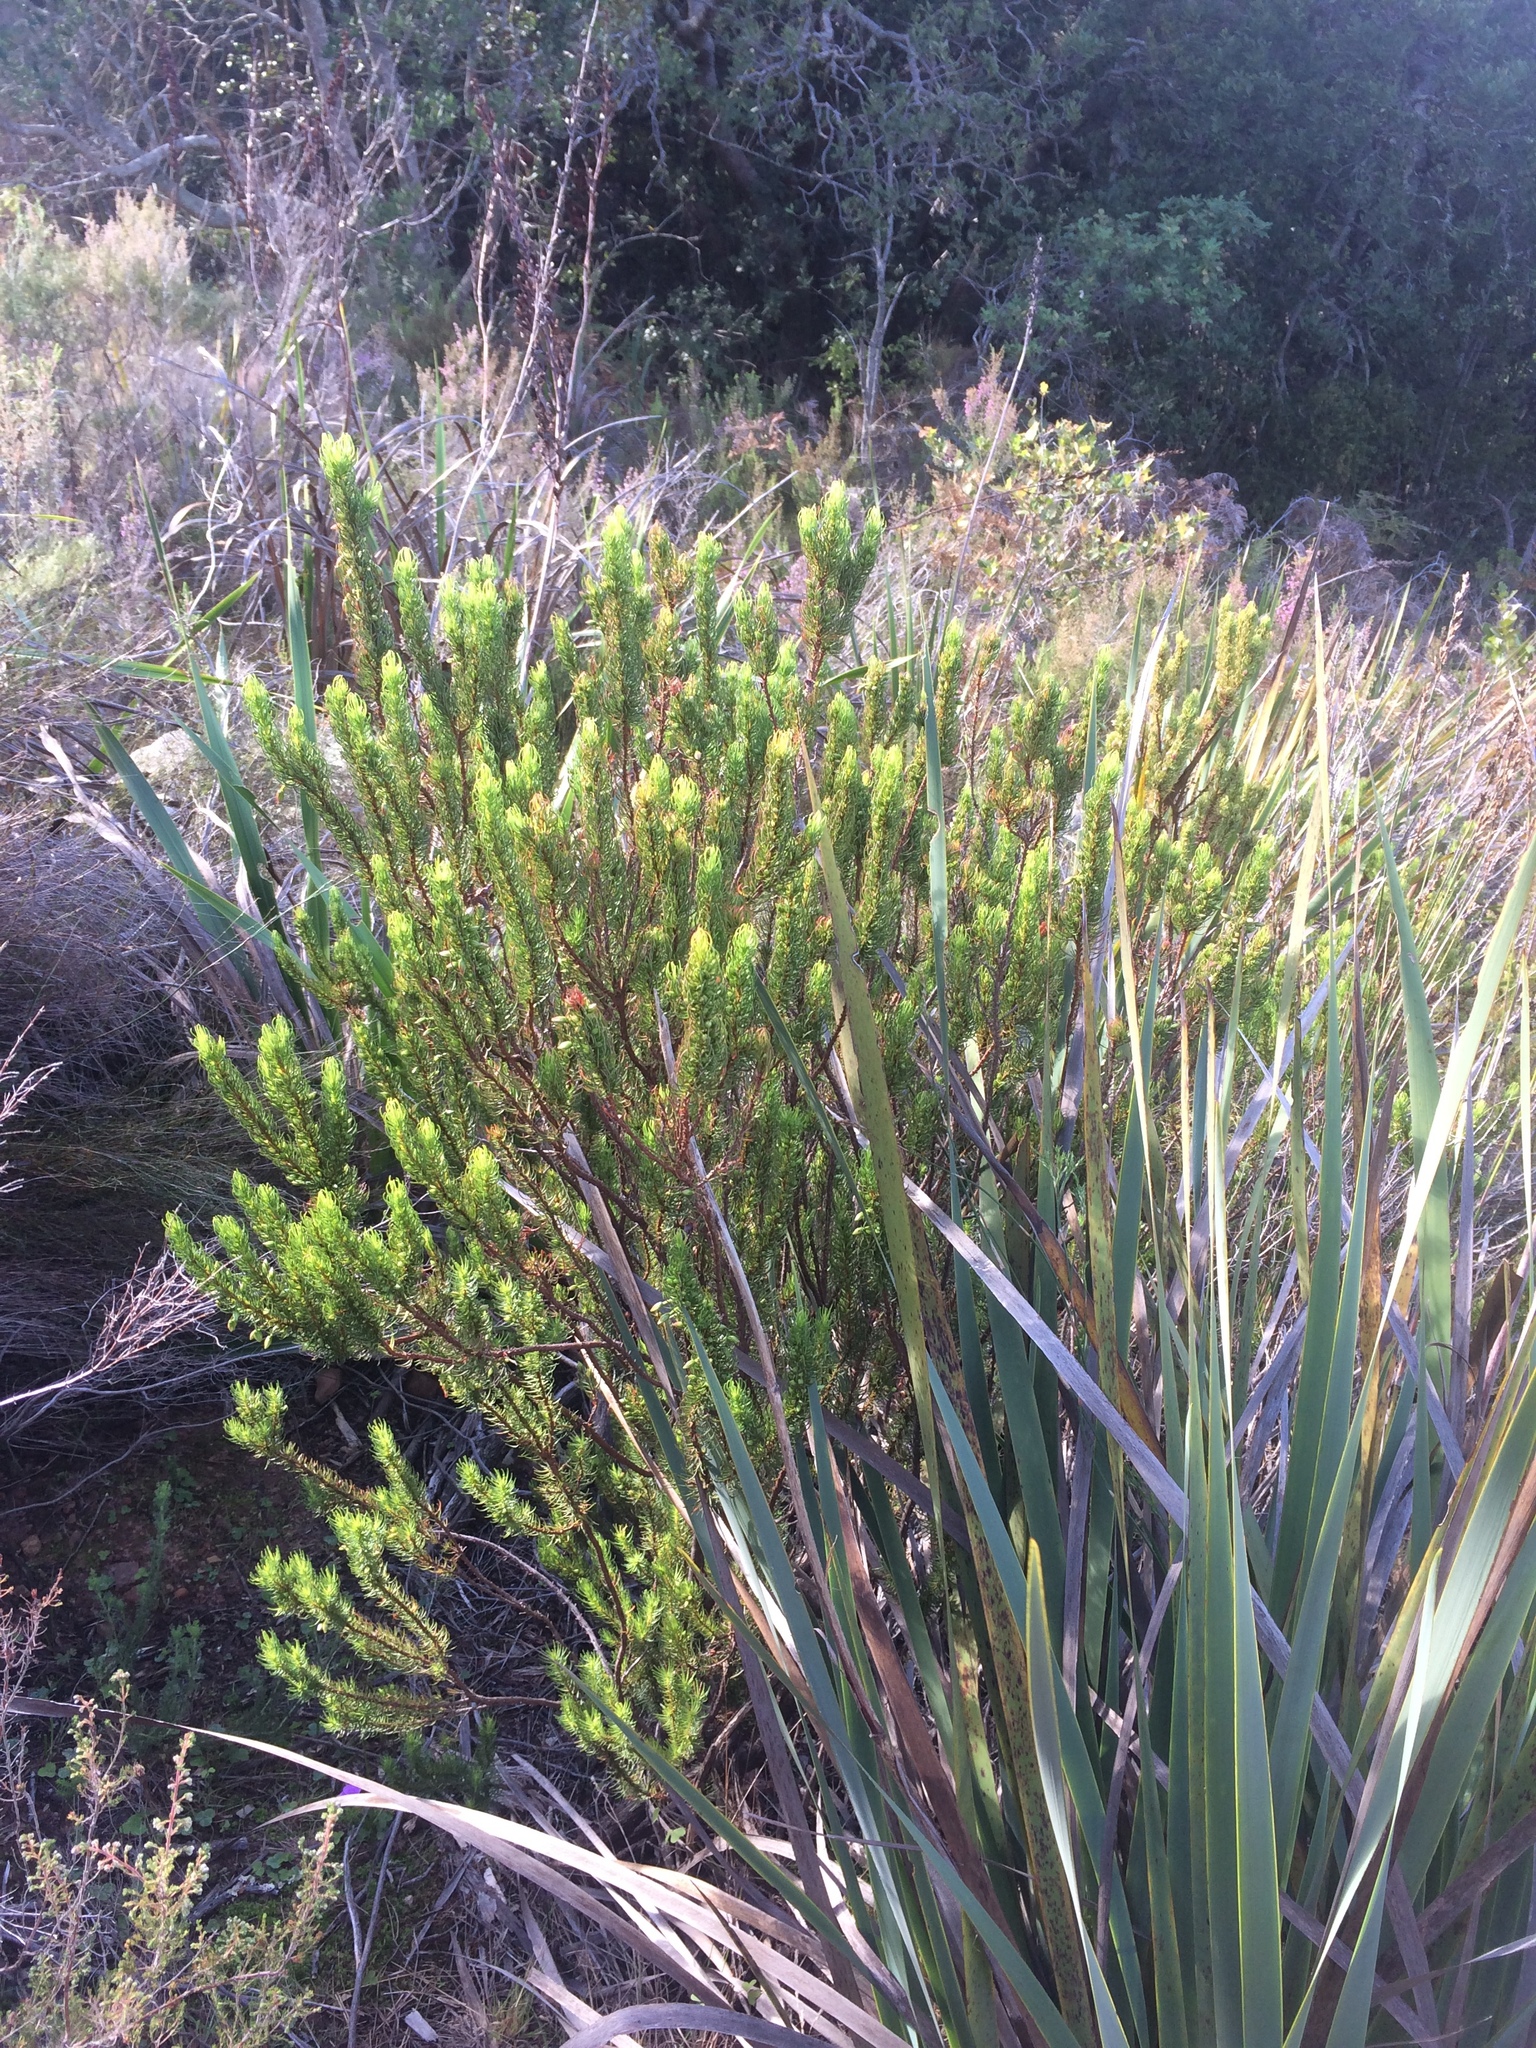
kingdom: Plantae
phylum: Tracheophyta
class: Magnoliopsida
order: Ericales
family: Ericaceae
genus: Erica
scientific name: Erica plukenetii
